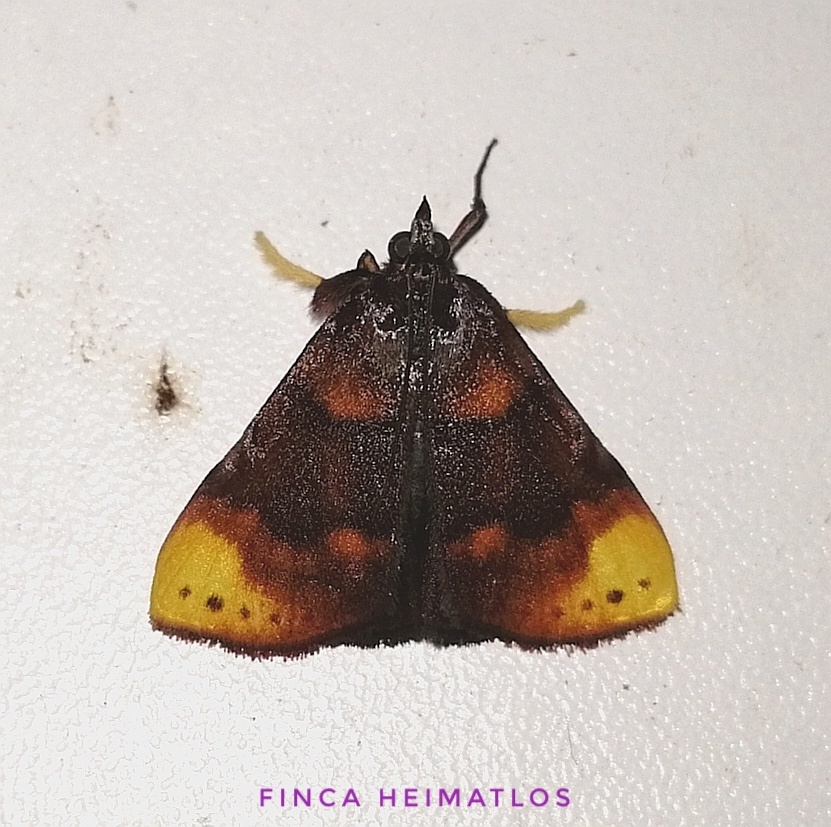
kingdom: Animalia
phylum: Arthropoda
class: Insecta
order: Lepidoptera
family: Pyralidae
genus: Paramacna
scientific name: Paramacna nattereri
